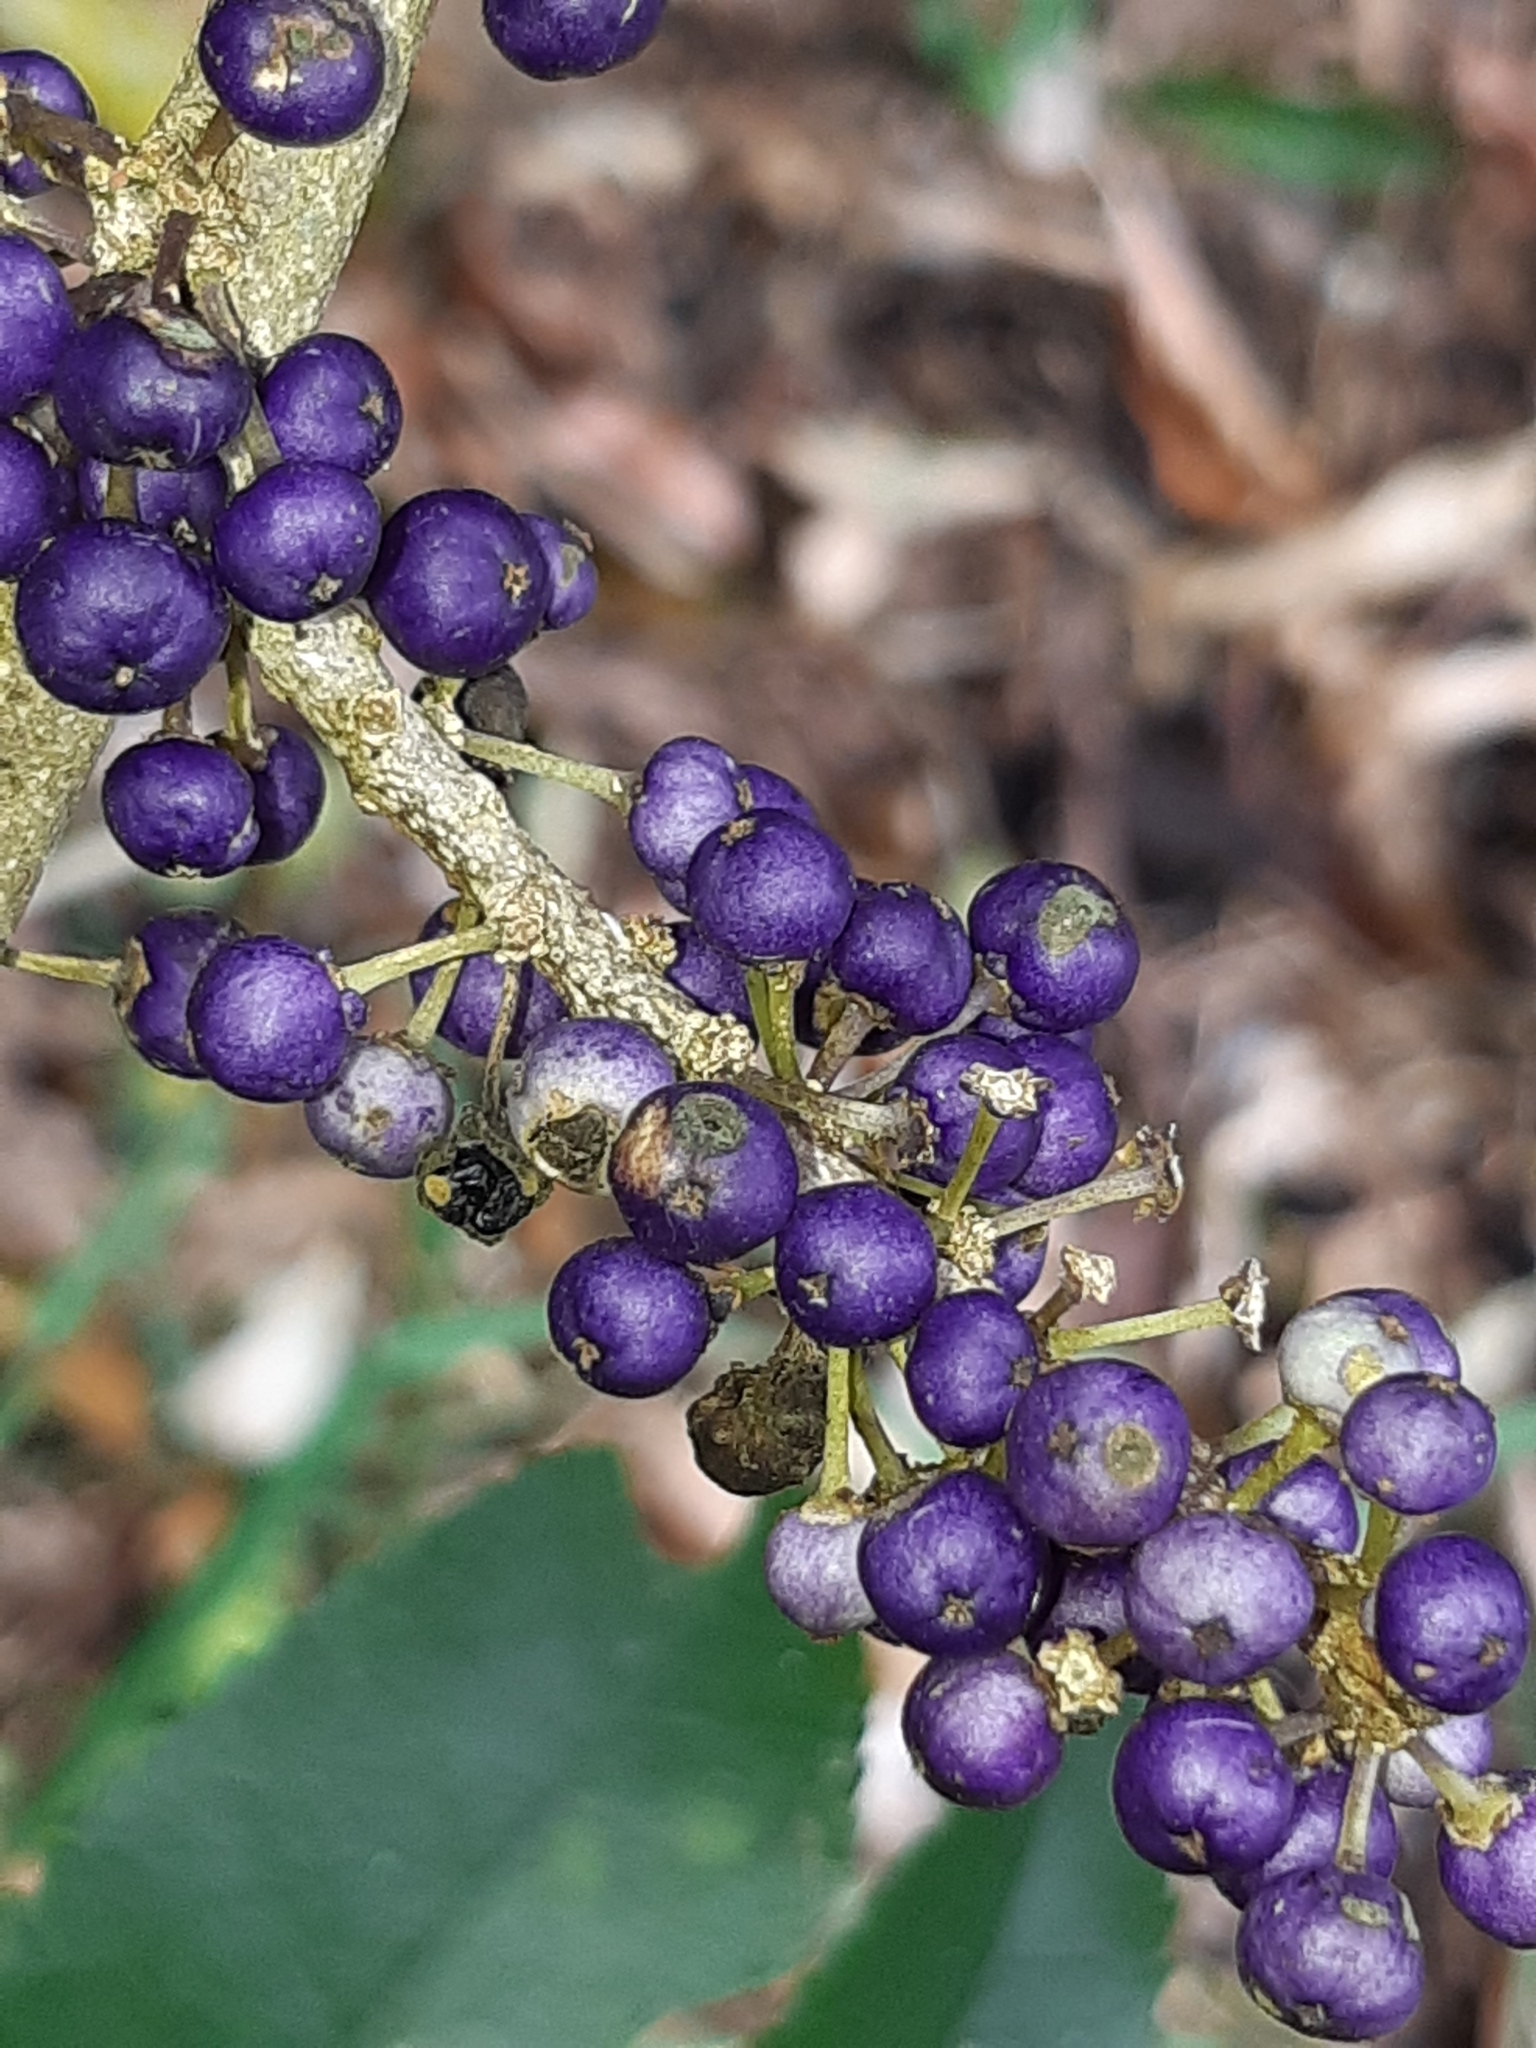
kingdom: Plantae
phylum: Tracheophyta
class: Magnoliopsida
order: Malpighiales
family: Violaceae
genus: Melicytus
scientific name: Melicytus ramiflorus
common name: Mahoe
